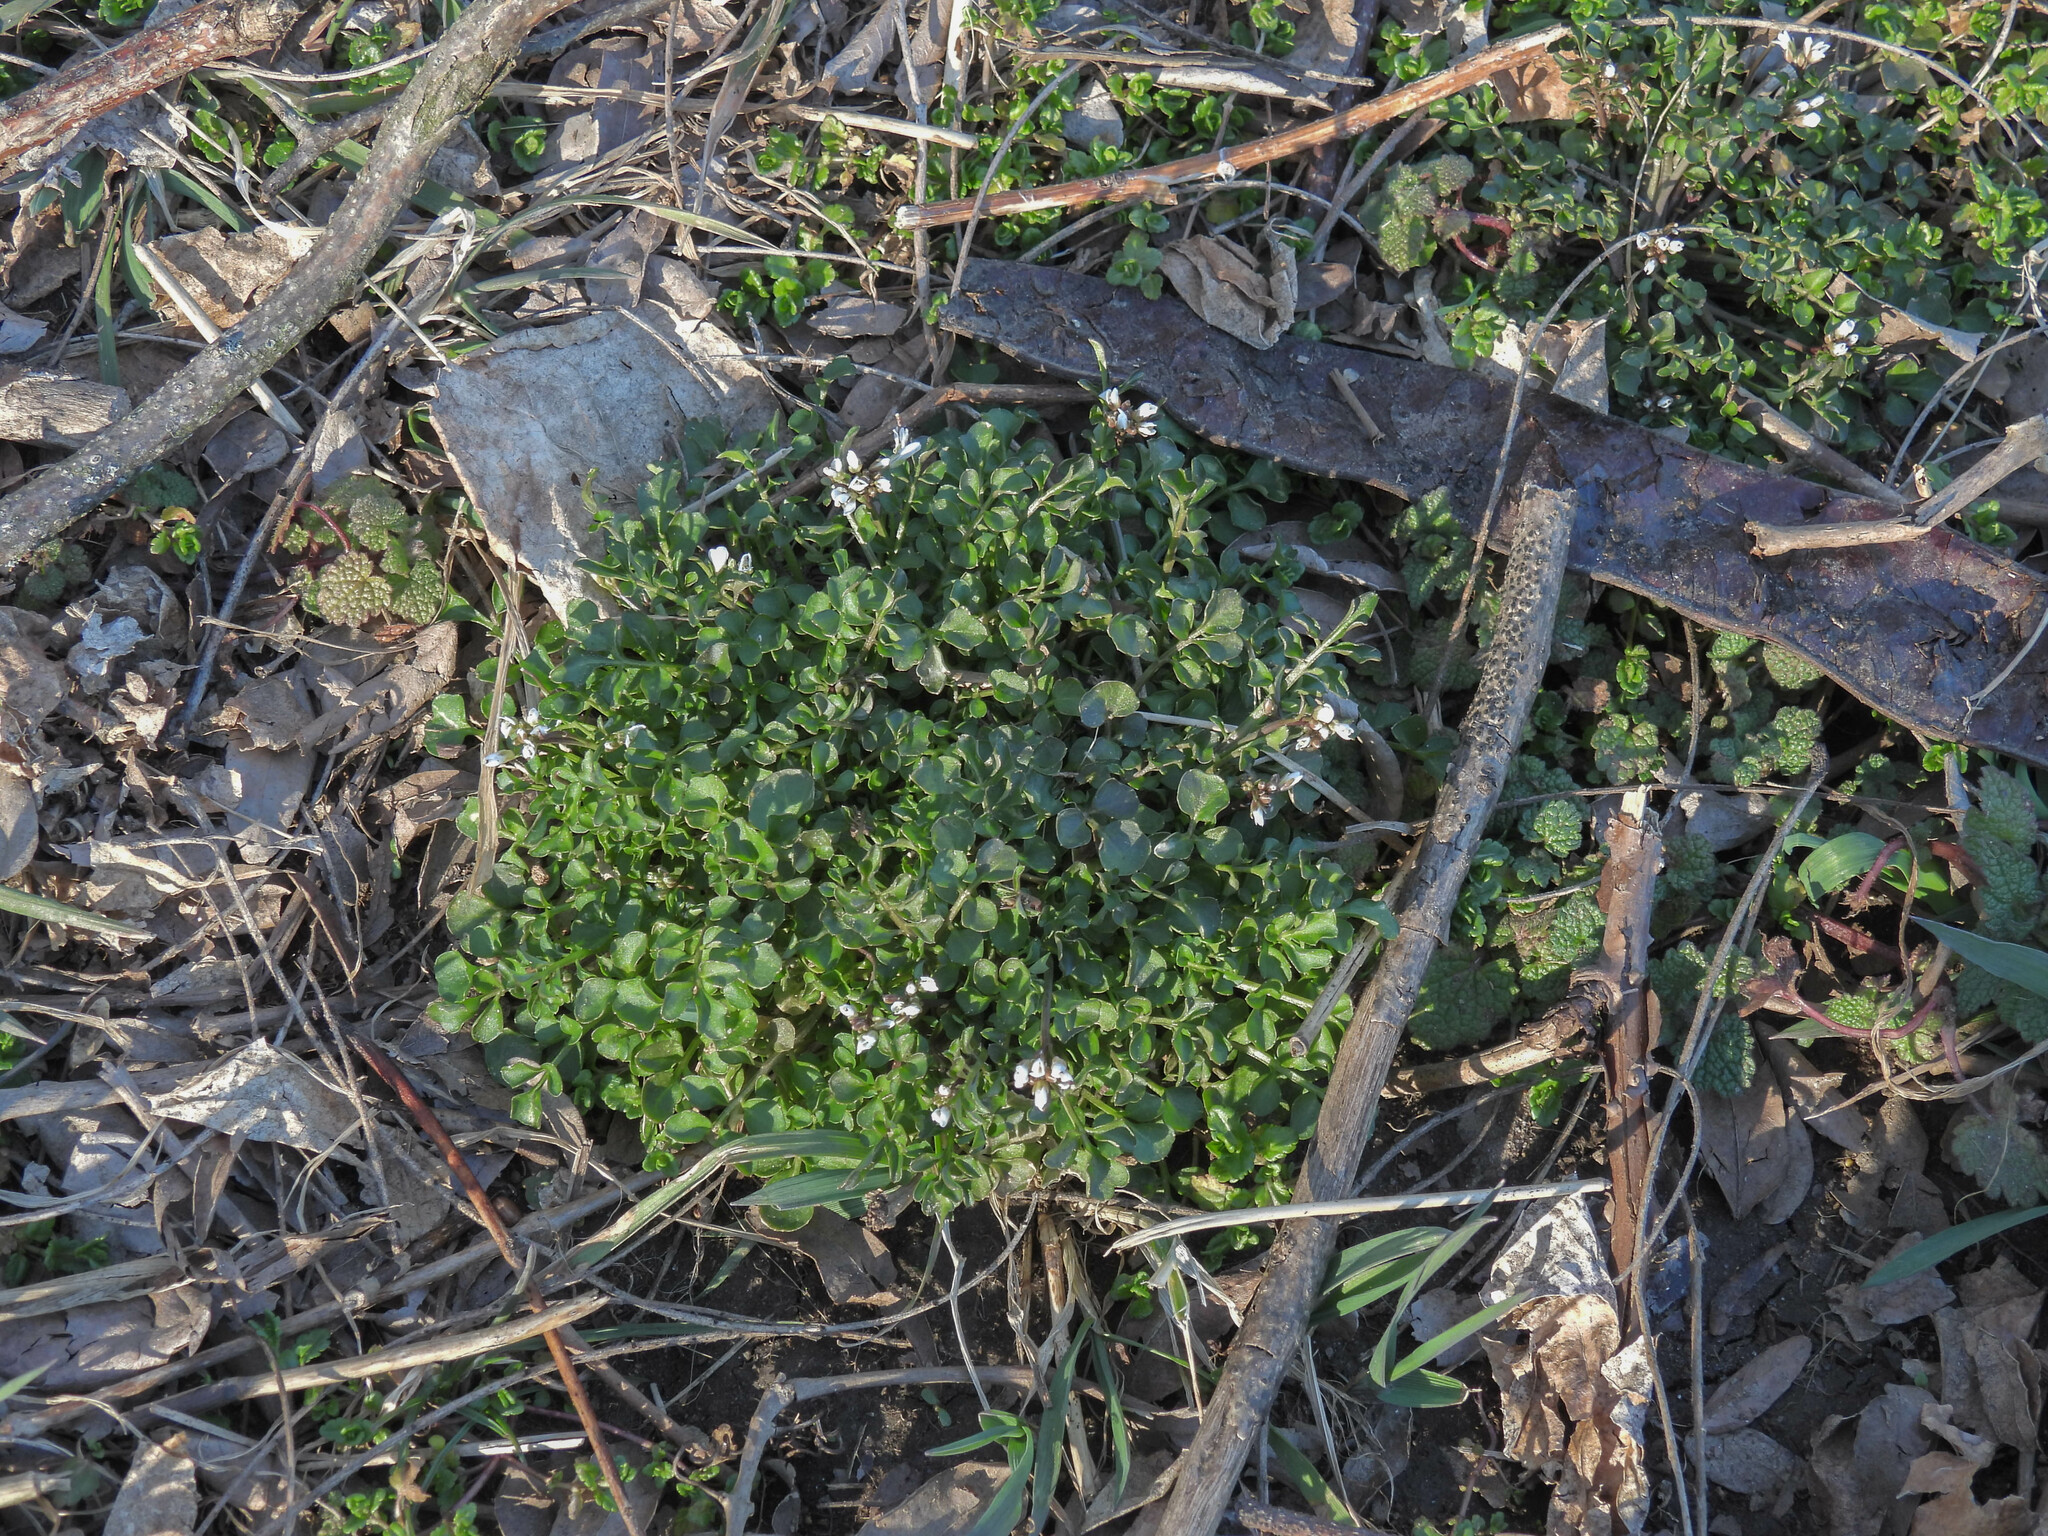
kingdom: Plantae
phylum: Tracheophyta
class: Magnoliopsida
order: Brassicales
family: Brassicaceae
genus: Cardamine
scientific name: Cardamine hirsuta
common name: Hairy bittercress
